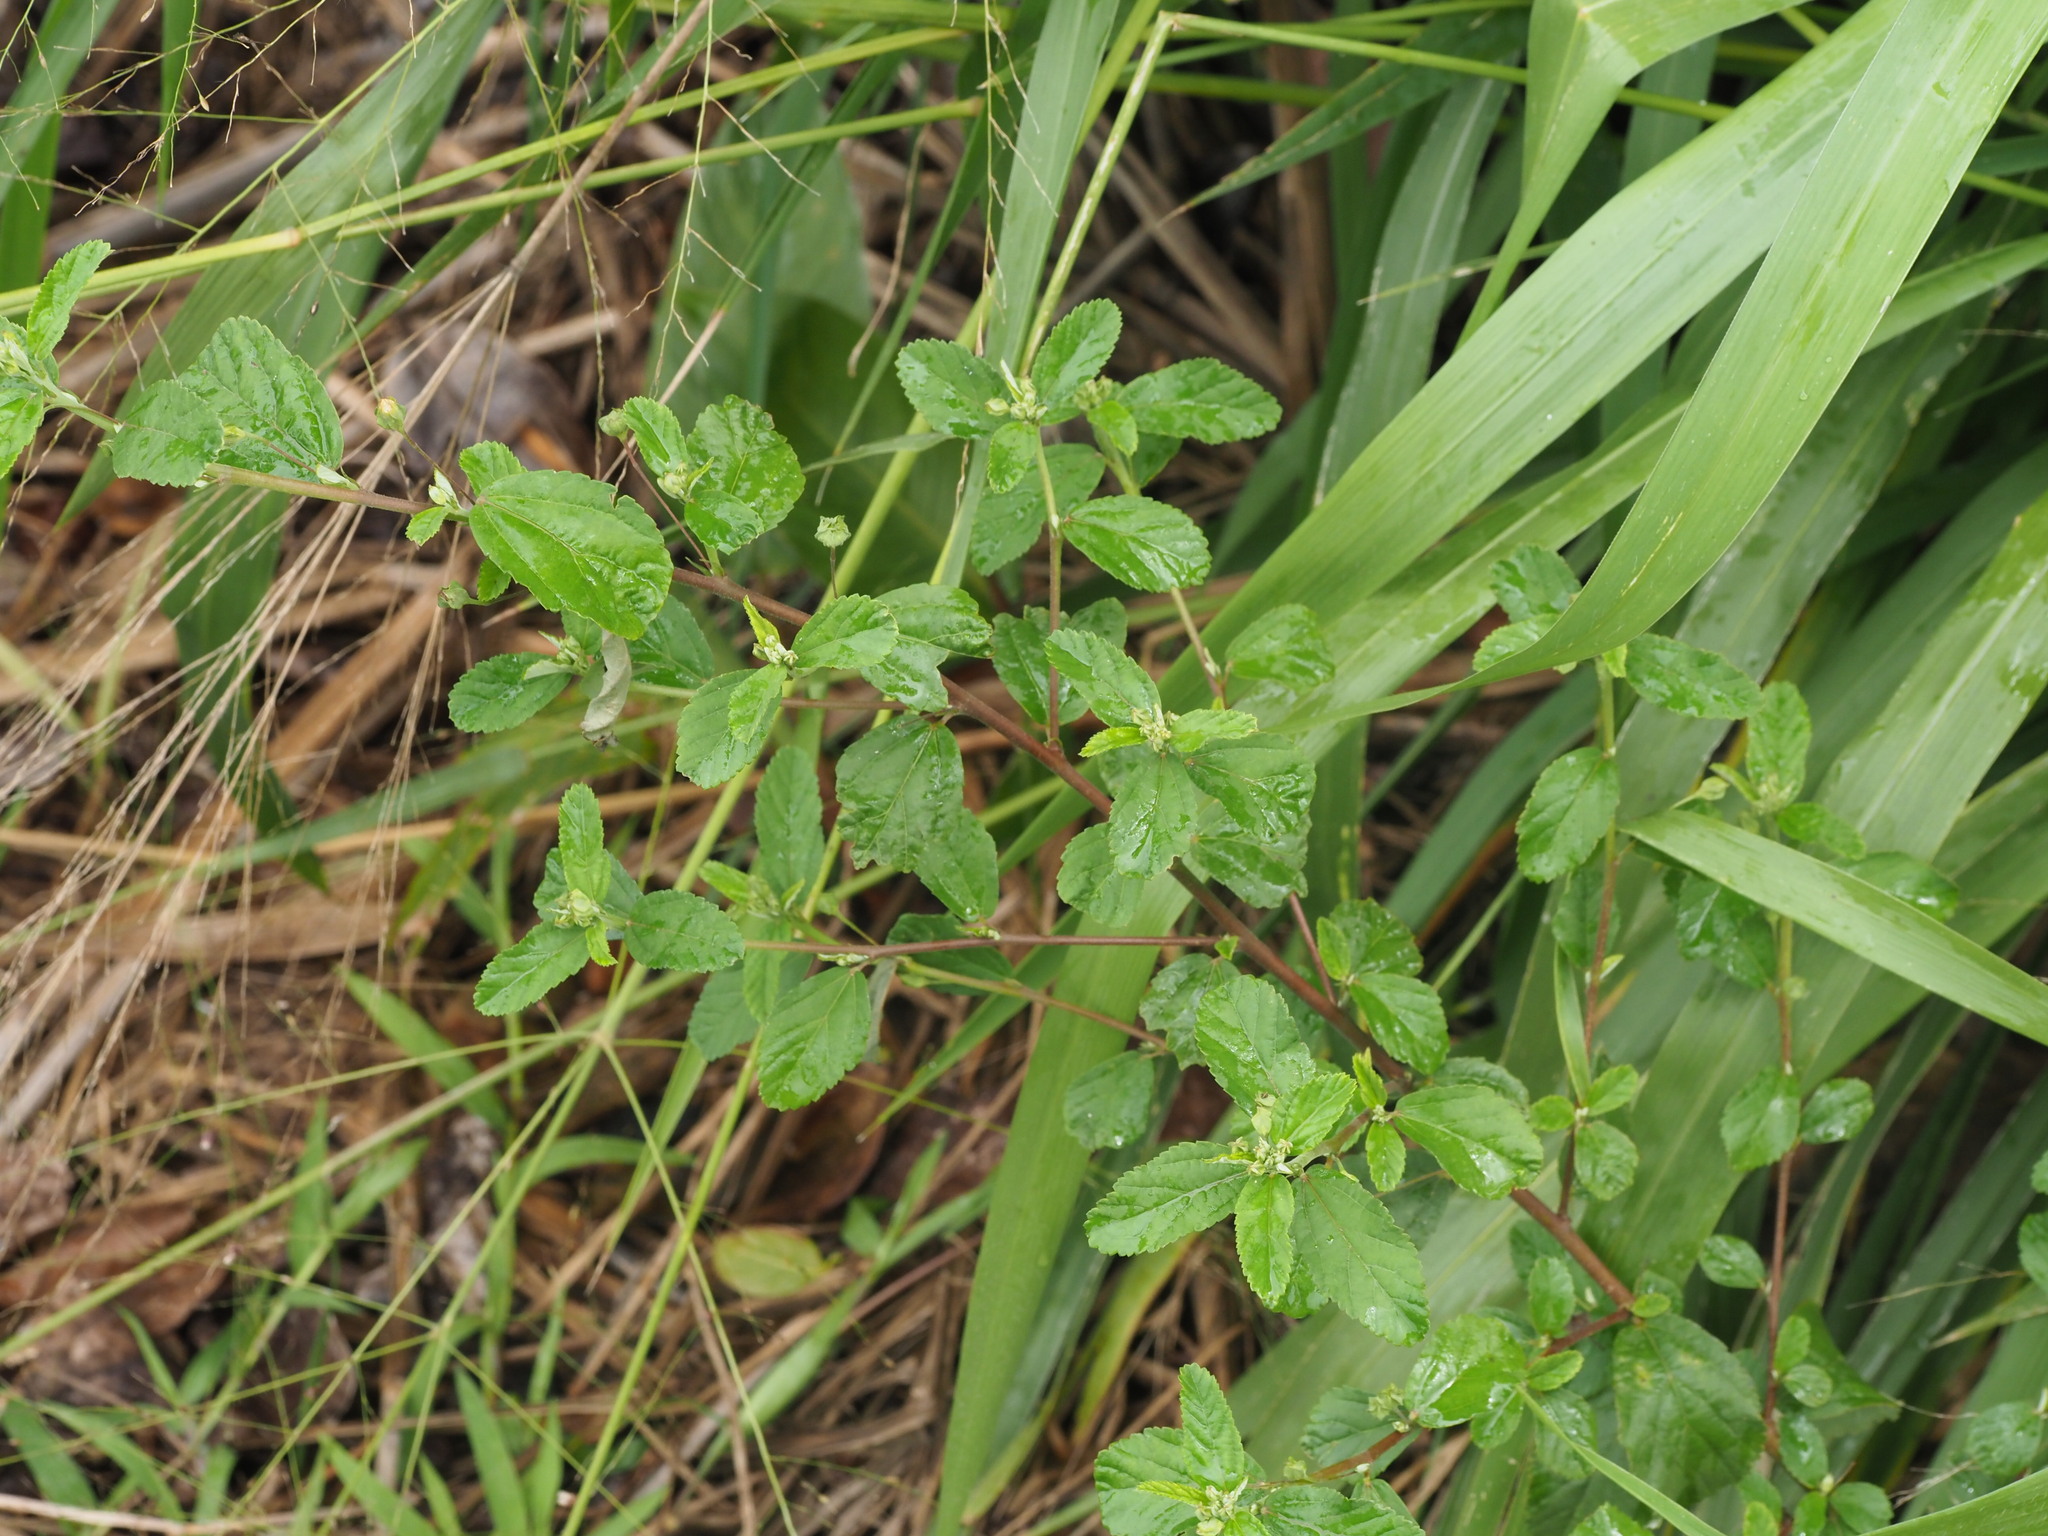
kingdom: Plantae
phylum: Tracheophyta
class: Magnoliopsida
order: Malvales
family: Malvaceae
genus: Sida
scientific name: Sida rhombifolia
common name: Queensland-hemp
